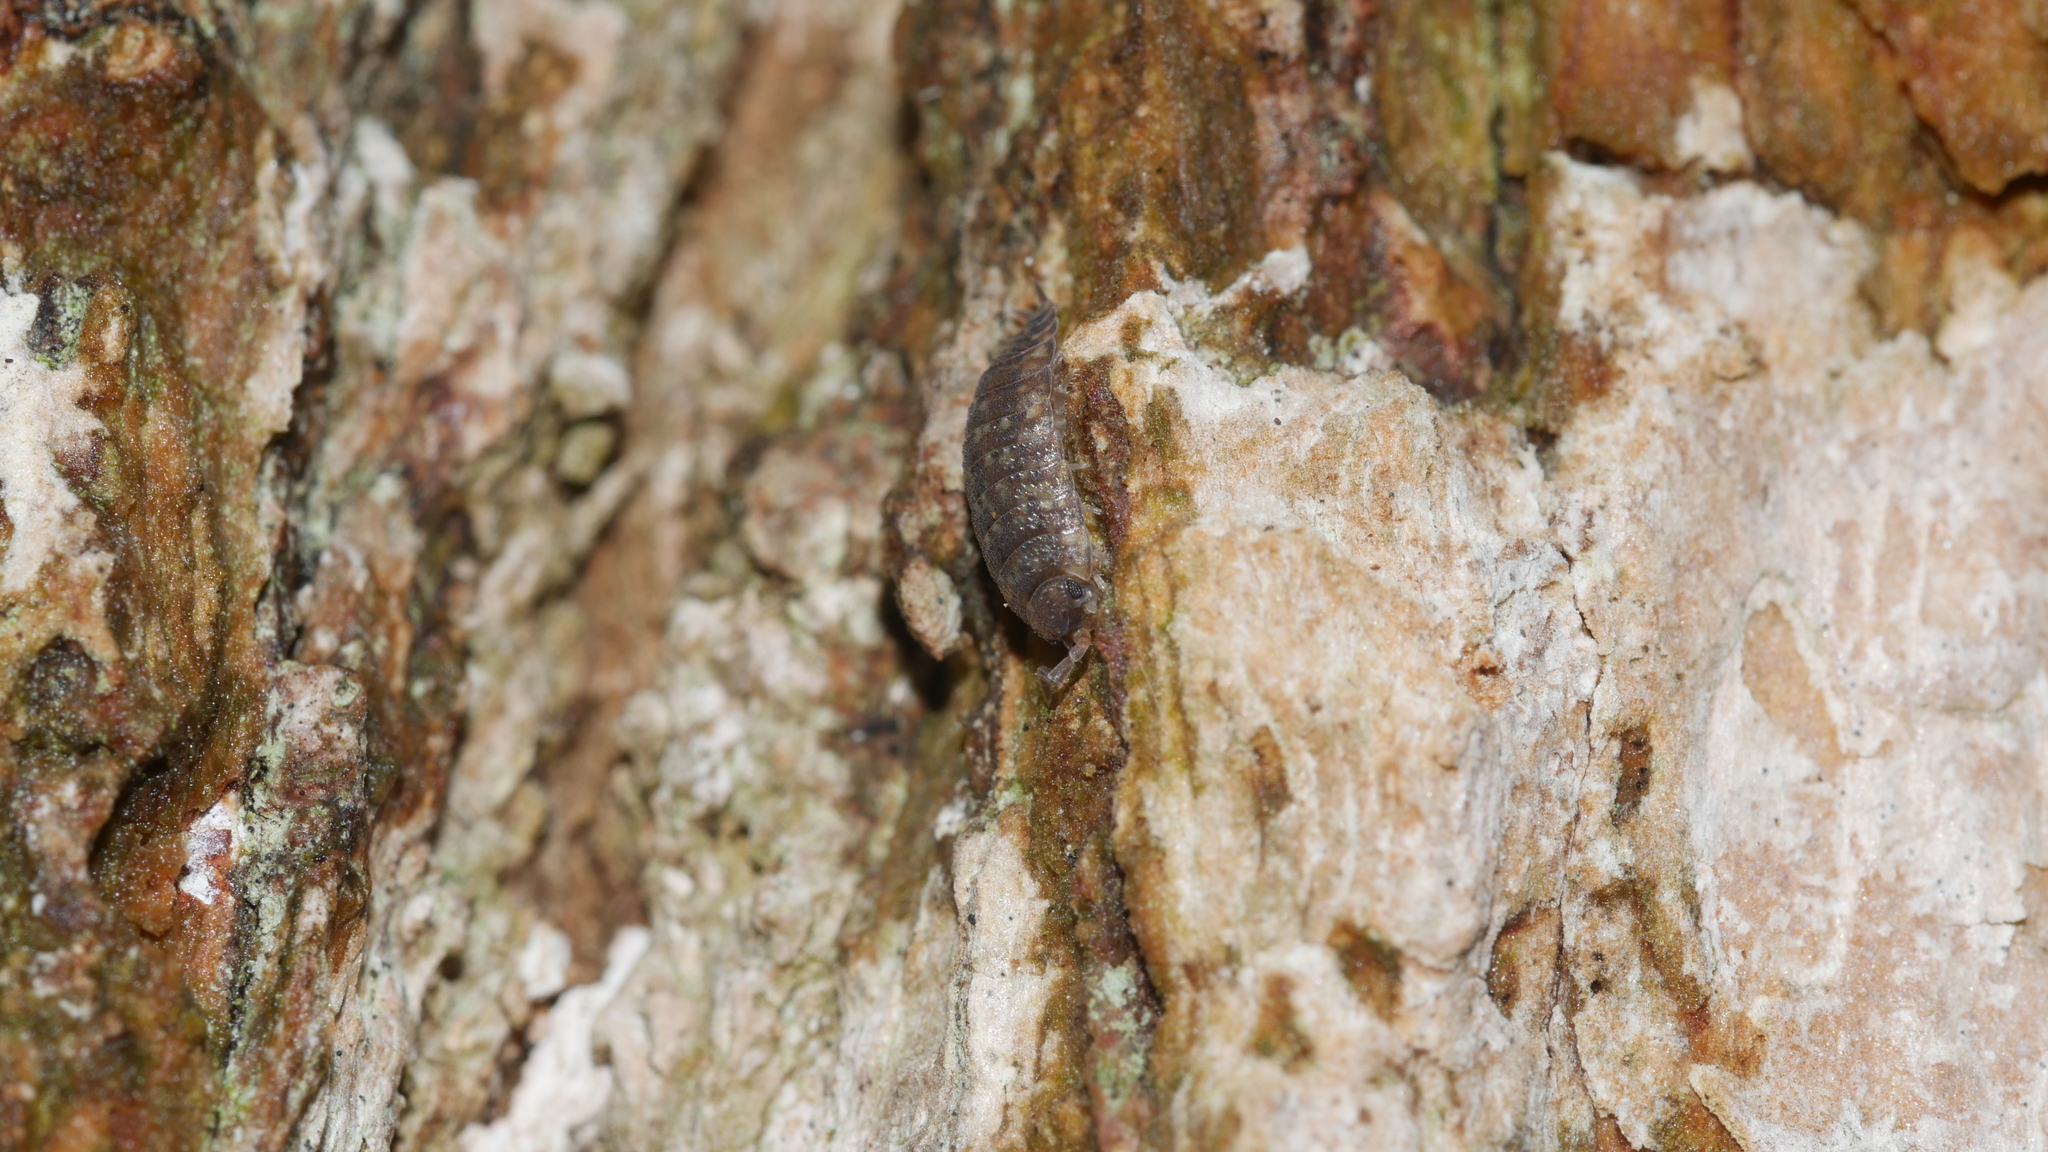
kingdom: Animalia
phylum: Arthropoda
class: Malacostraca
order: Isopoda
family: Porcellionidae
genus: Porcellio
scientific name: Porcellio scaber
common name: Common rough woodlouse
